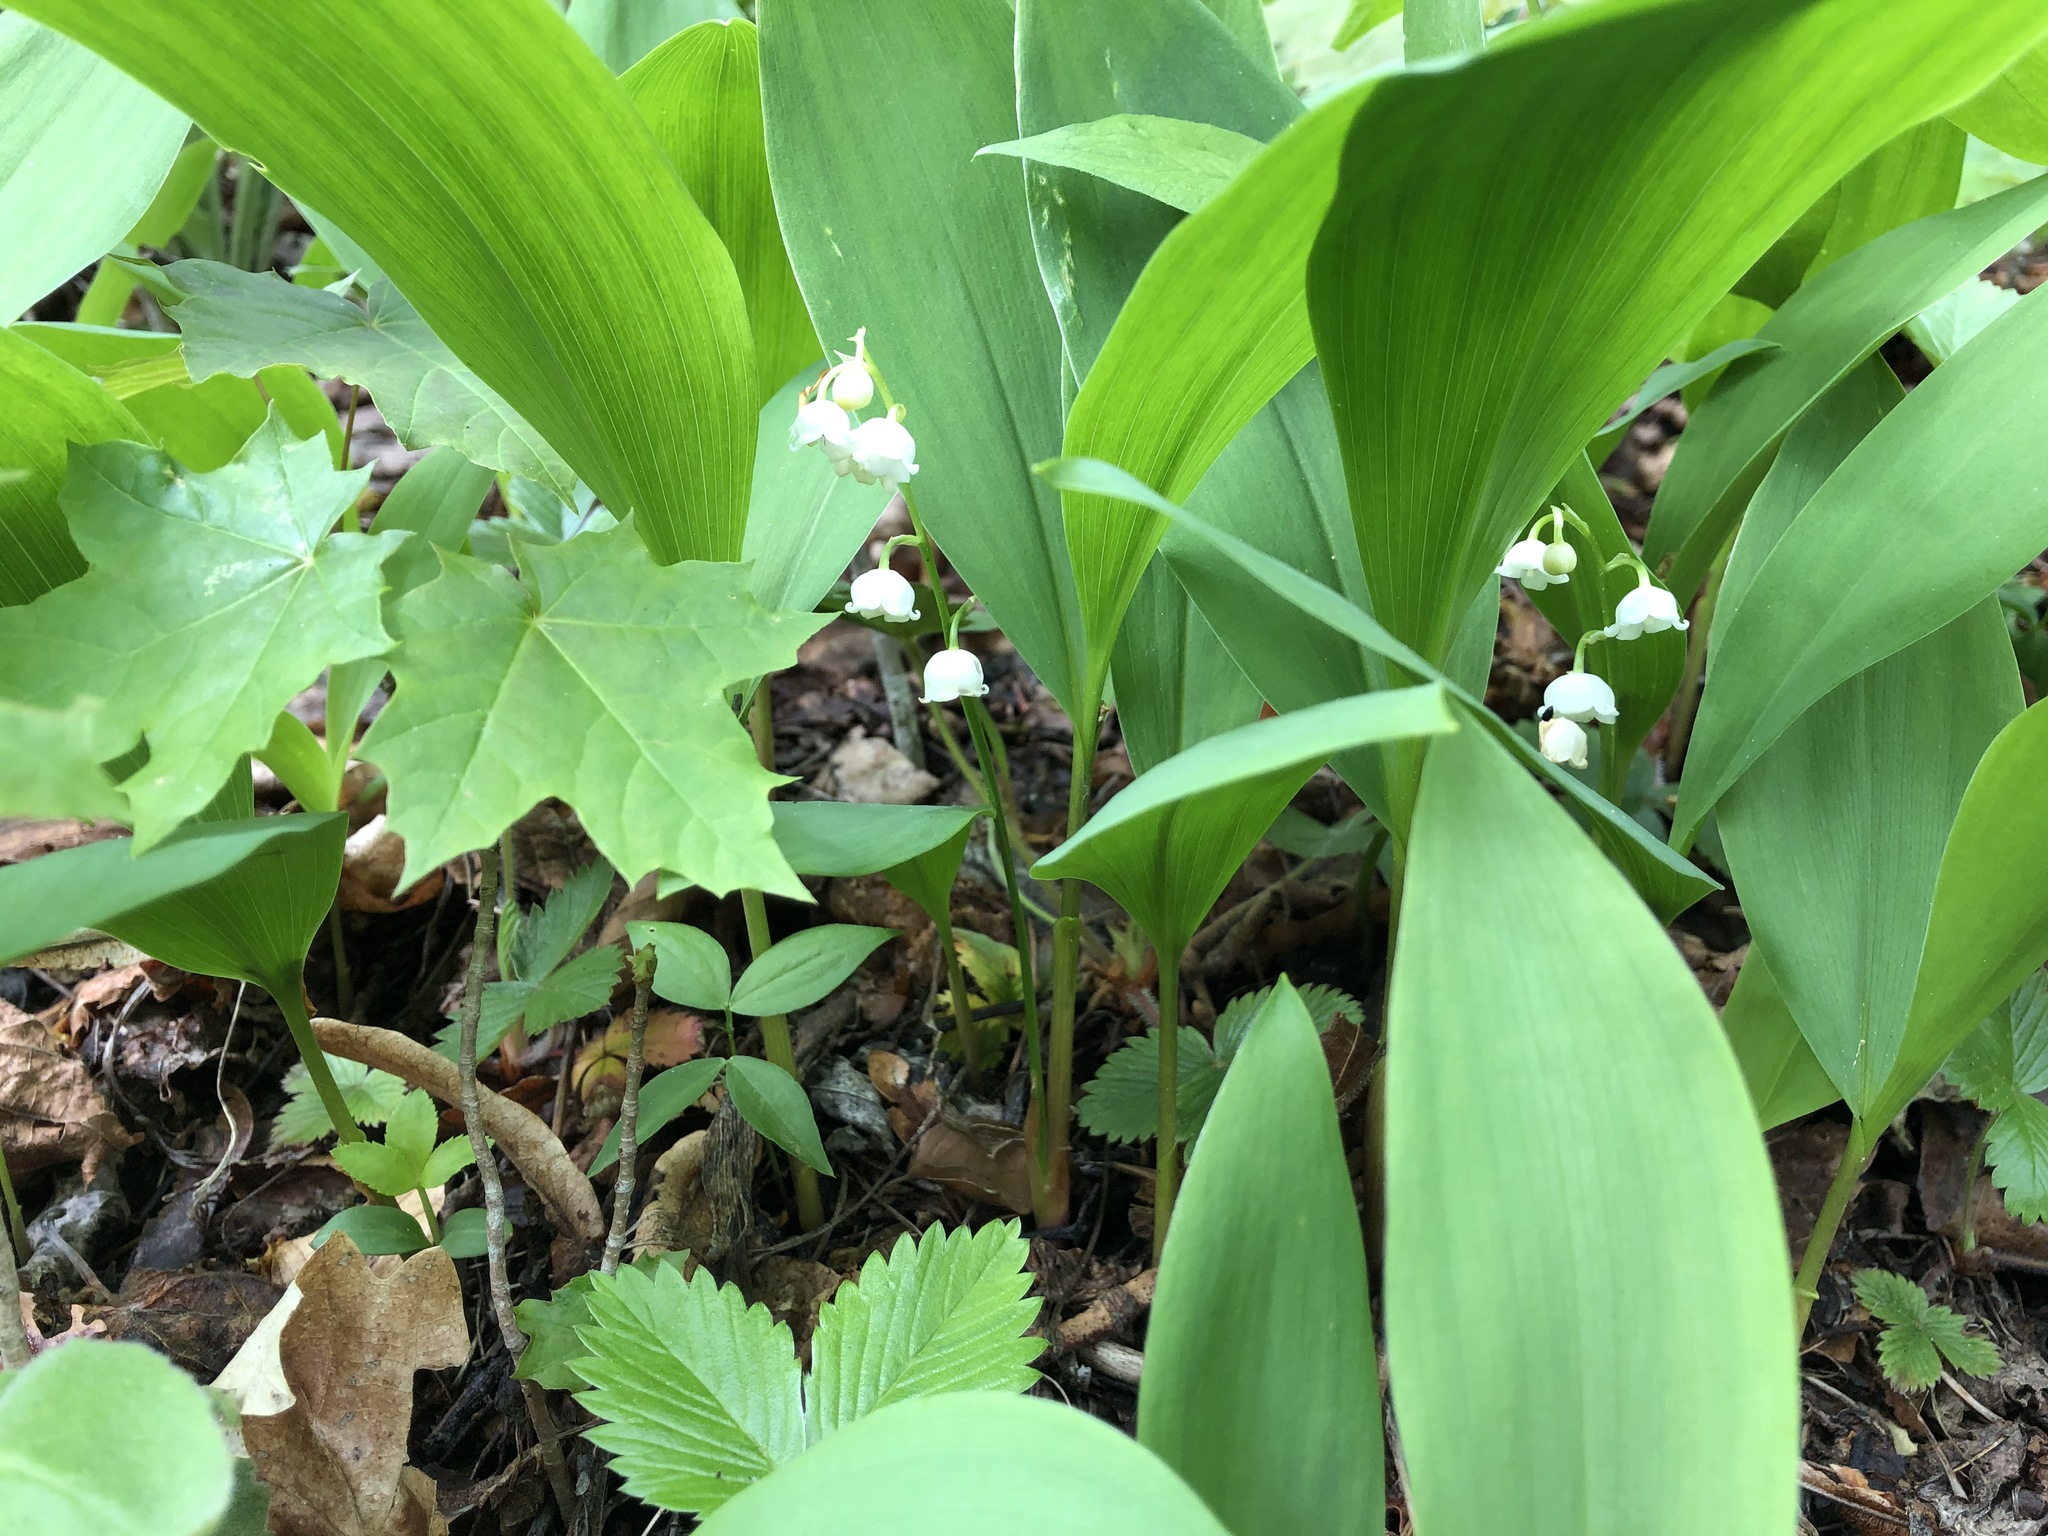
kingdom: Plantae
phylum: Tracheophyta
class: Liliopsida
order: Asparagales
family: Asparagaceae
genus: Convallaria
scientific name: Convallaria majalis
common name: Lily-of-the-valley
